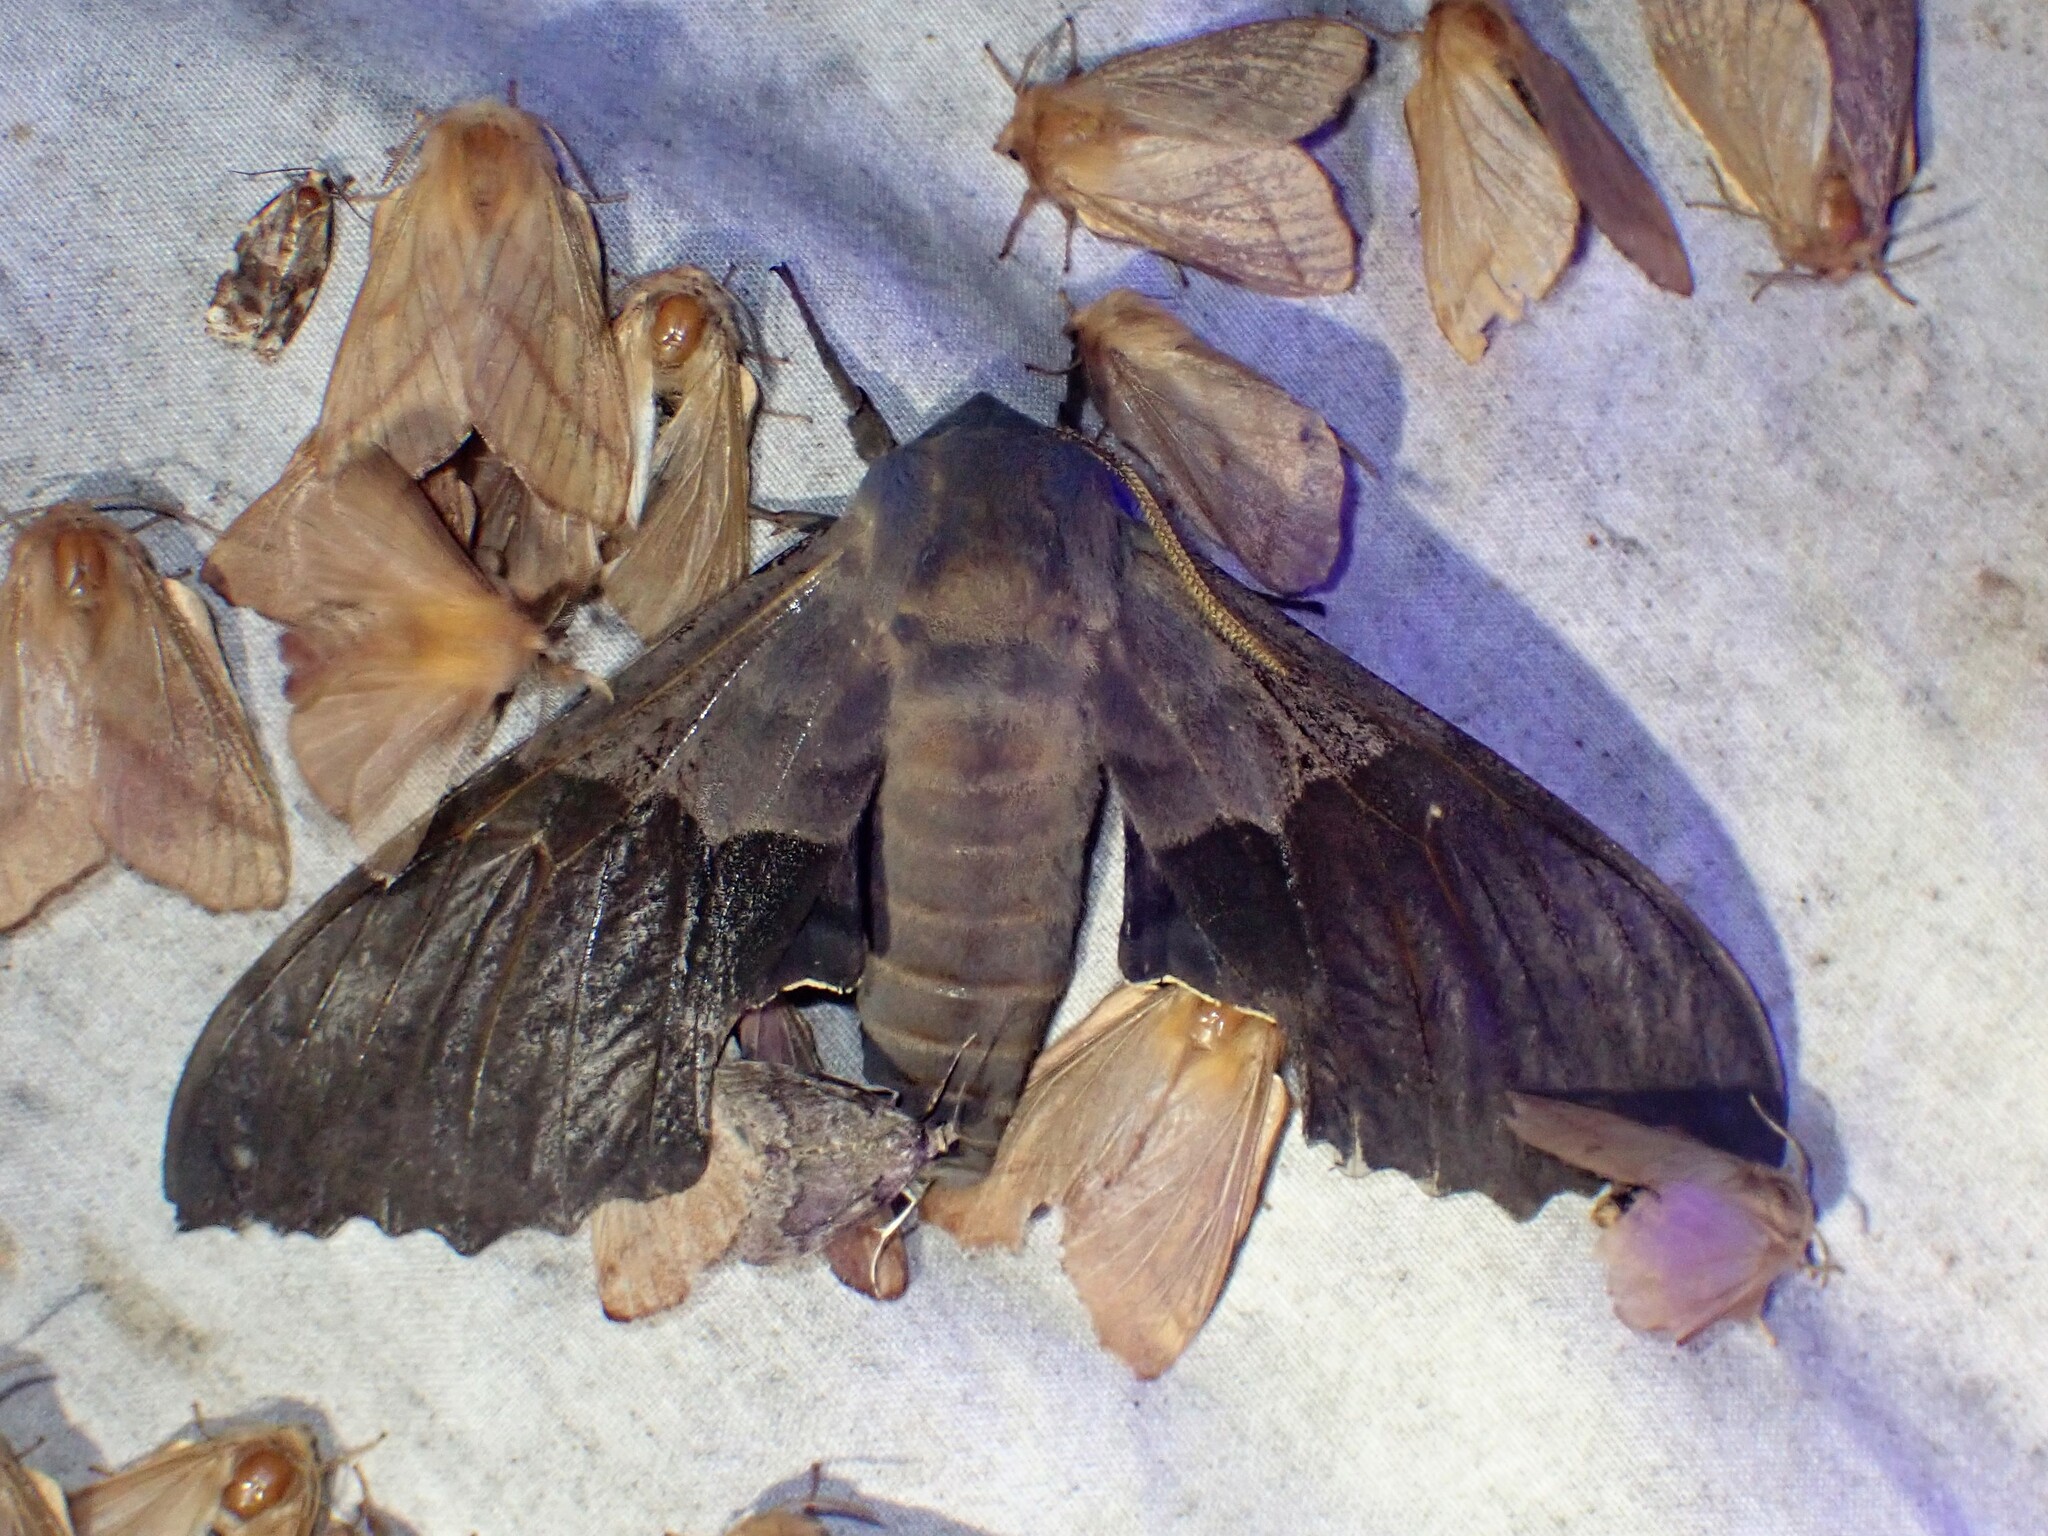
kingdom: Animalia
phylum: Arthropoda
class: Insecta
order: Lepidoptera
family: Sphingidae
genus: Pachysphinx
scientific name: Pachysphinx modesta
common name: Big poplar sphinx
